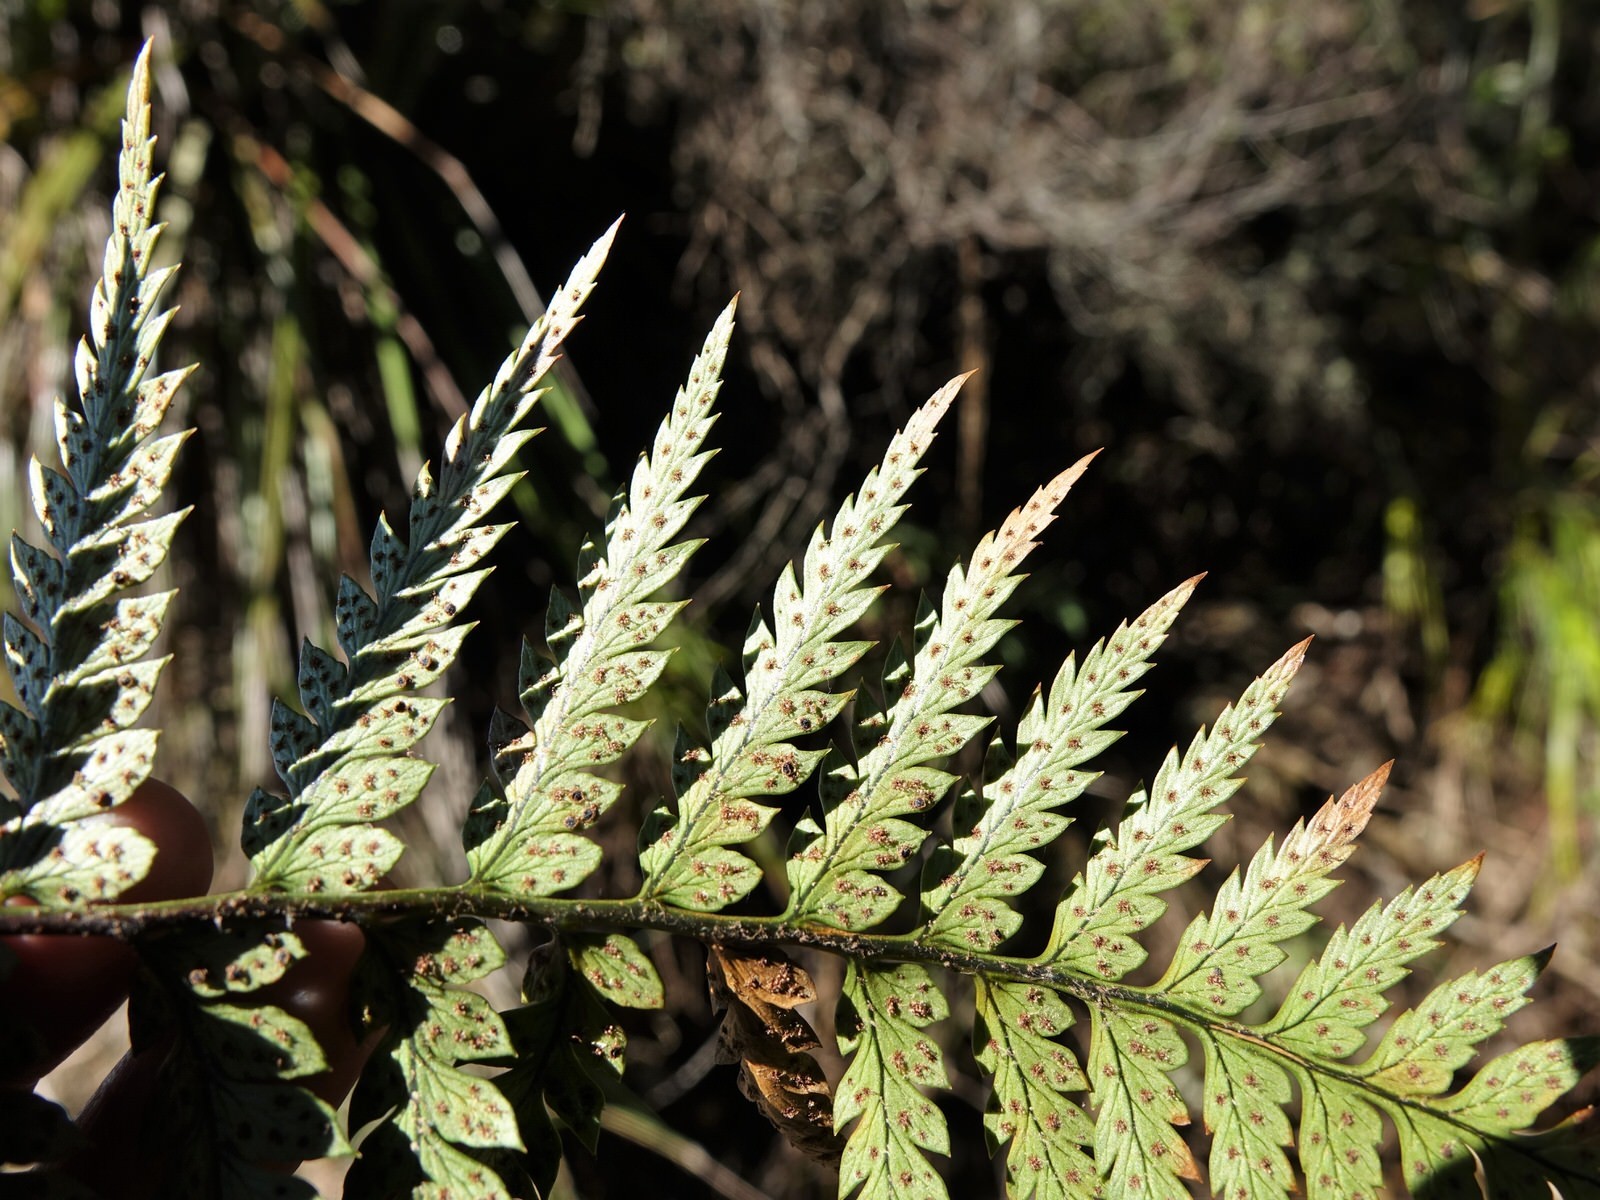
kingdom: Plantae
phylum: Tracheophyta
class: Polypodiopsida
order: Polypodiales
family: Dryopteridaceae
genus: Polystichum
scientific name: Polystichum neozelandicum
